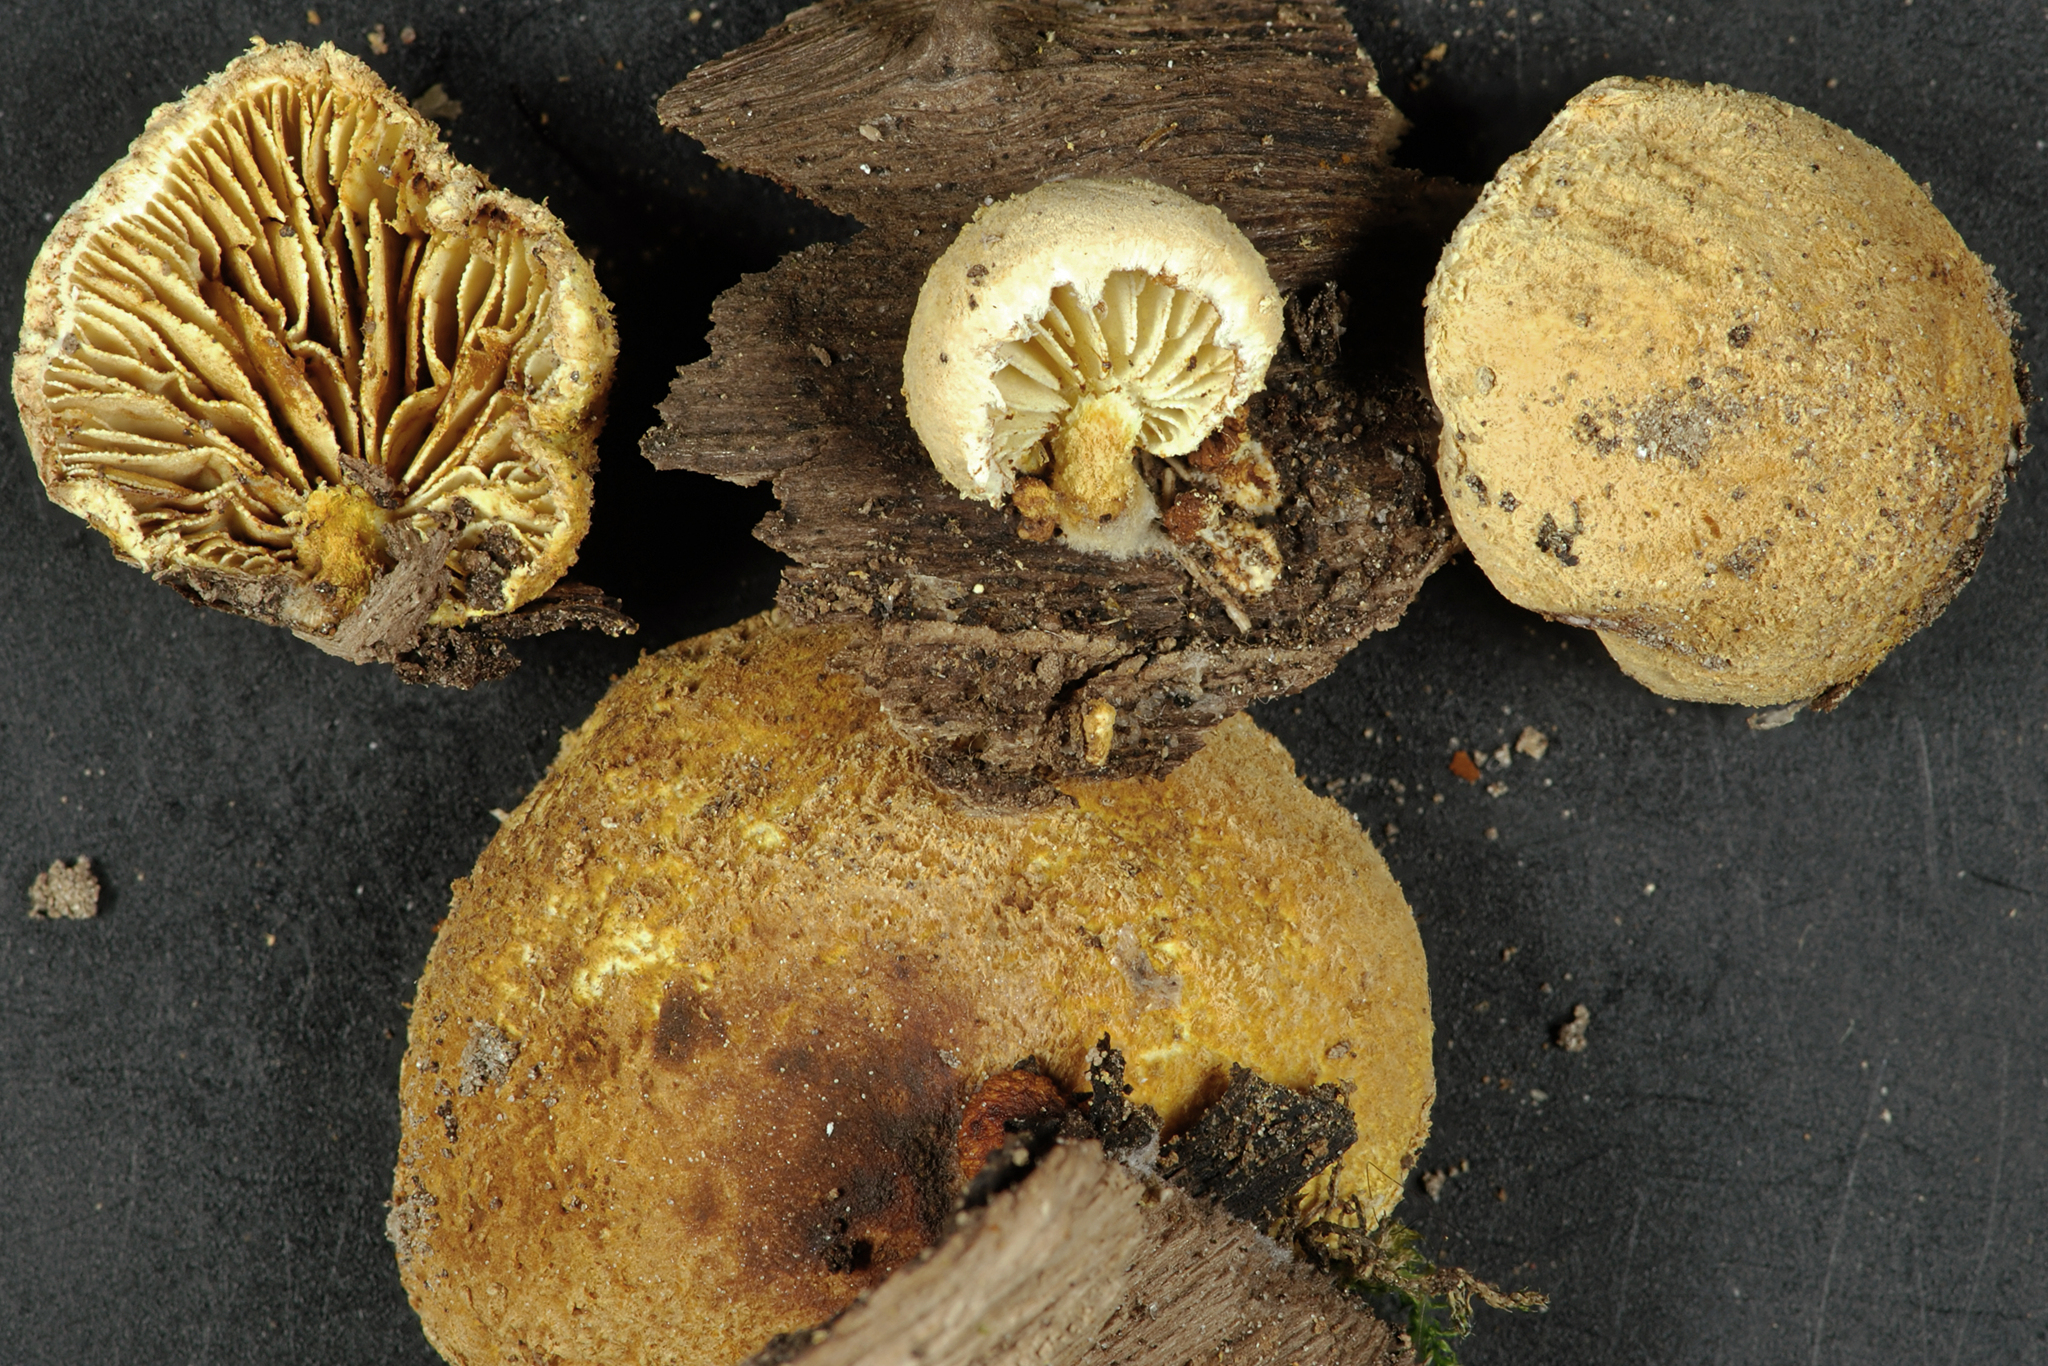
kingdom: Fungi
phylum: Basidiomycota
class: Agaricomycetes
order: Agaricales
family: Crepidotaceae
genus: Pleuroflammula
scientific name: Pleuroflammula praestans
